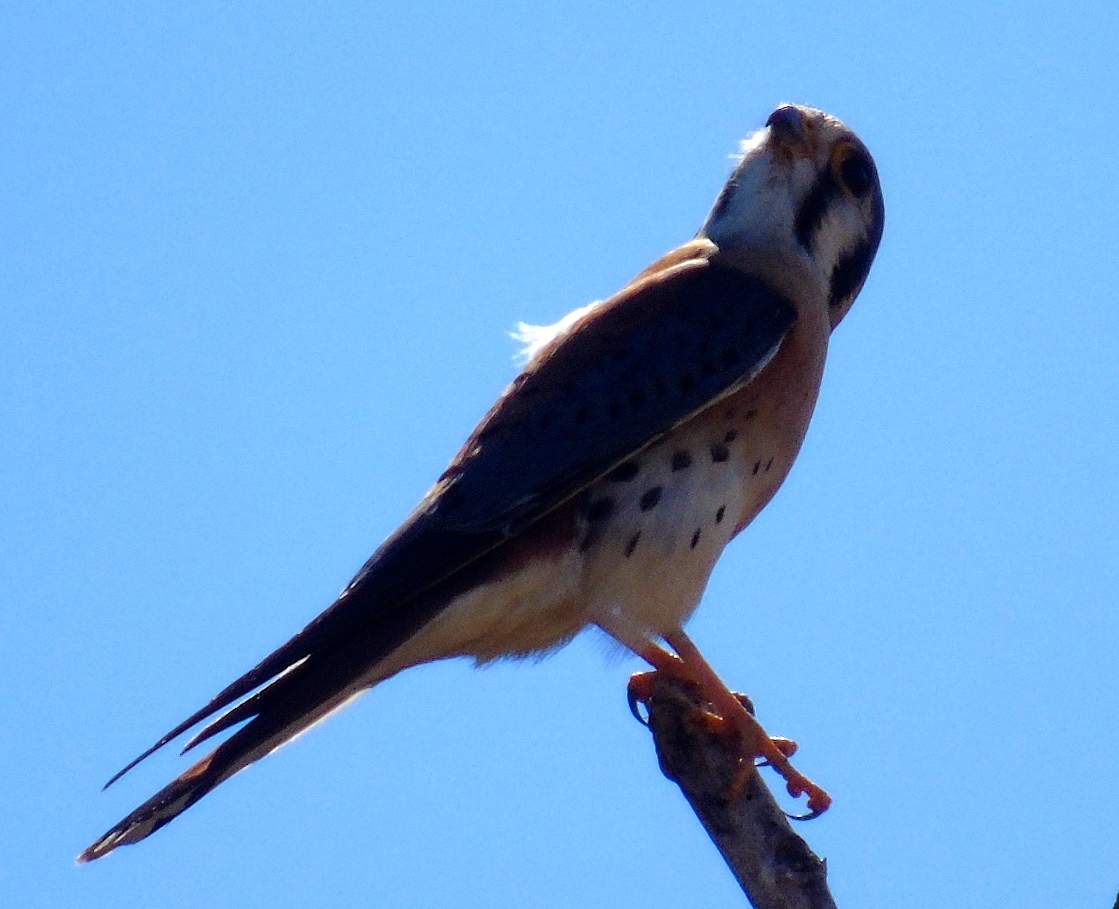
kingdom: Animalia
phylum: Chordata
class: Aves
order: Falconiformes
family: Falconidae
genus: Falco
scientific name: Falco sparverius
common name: American kestrel
